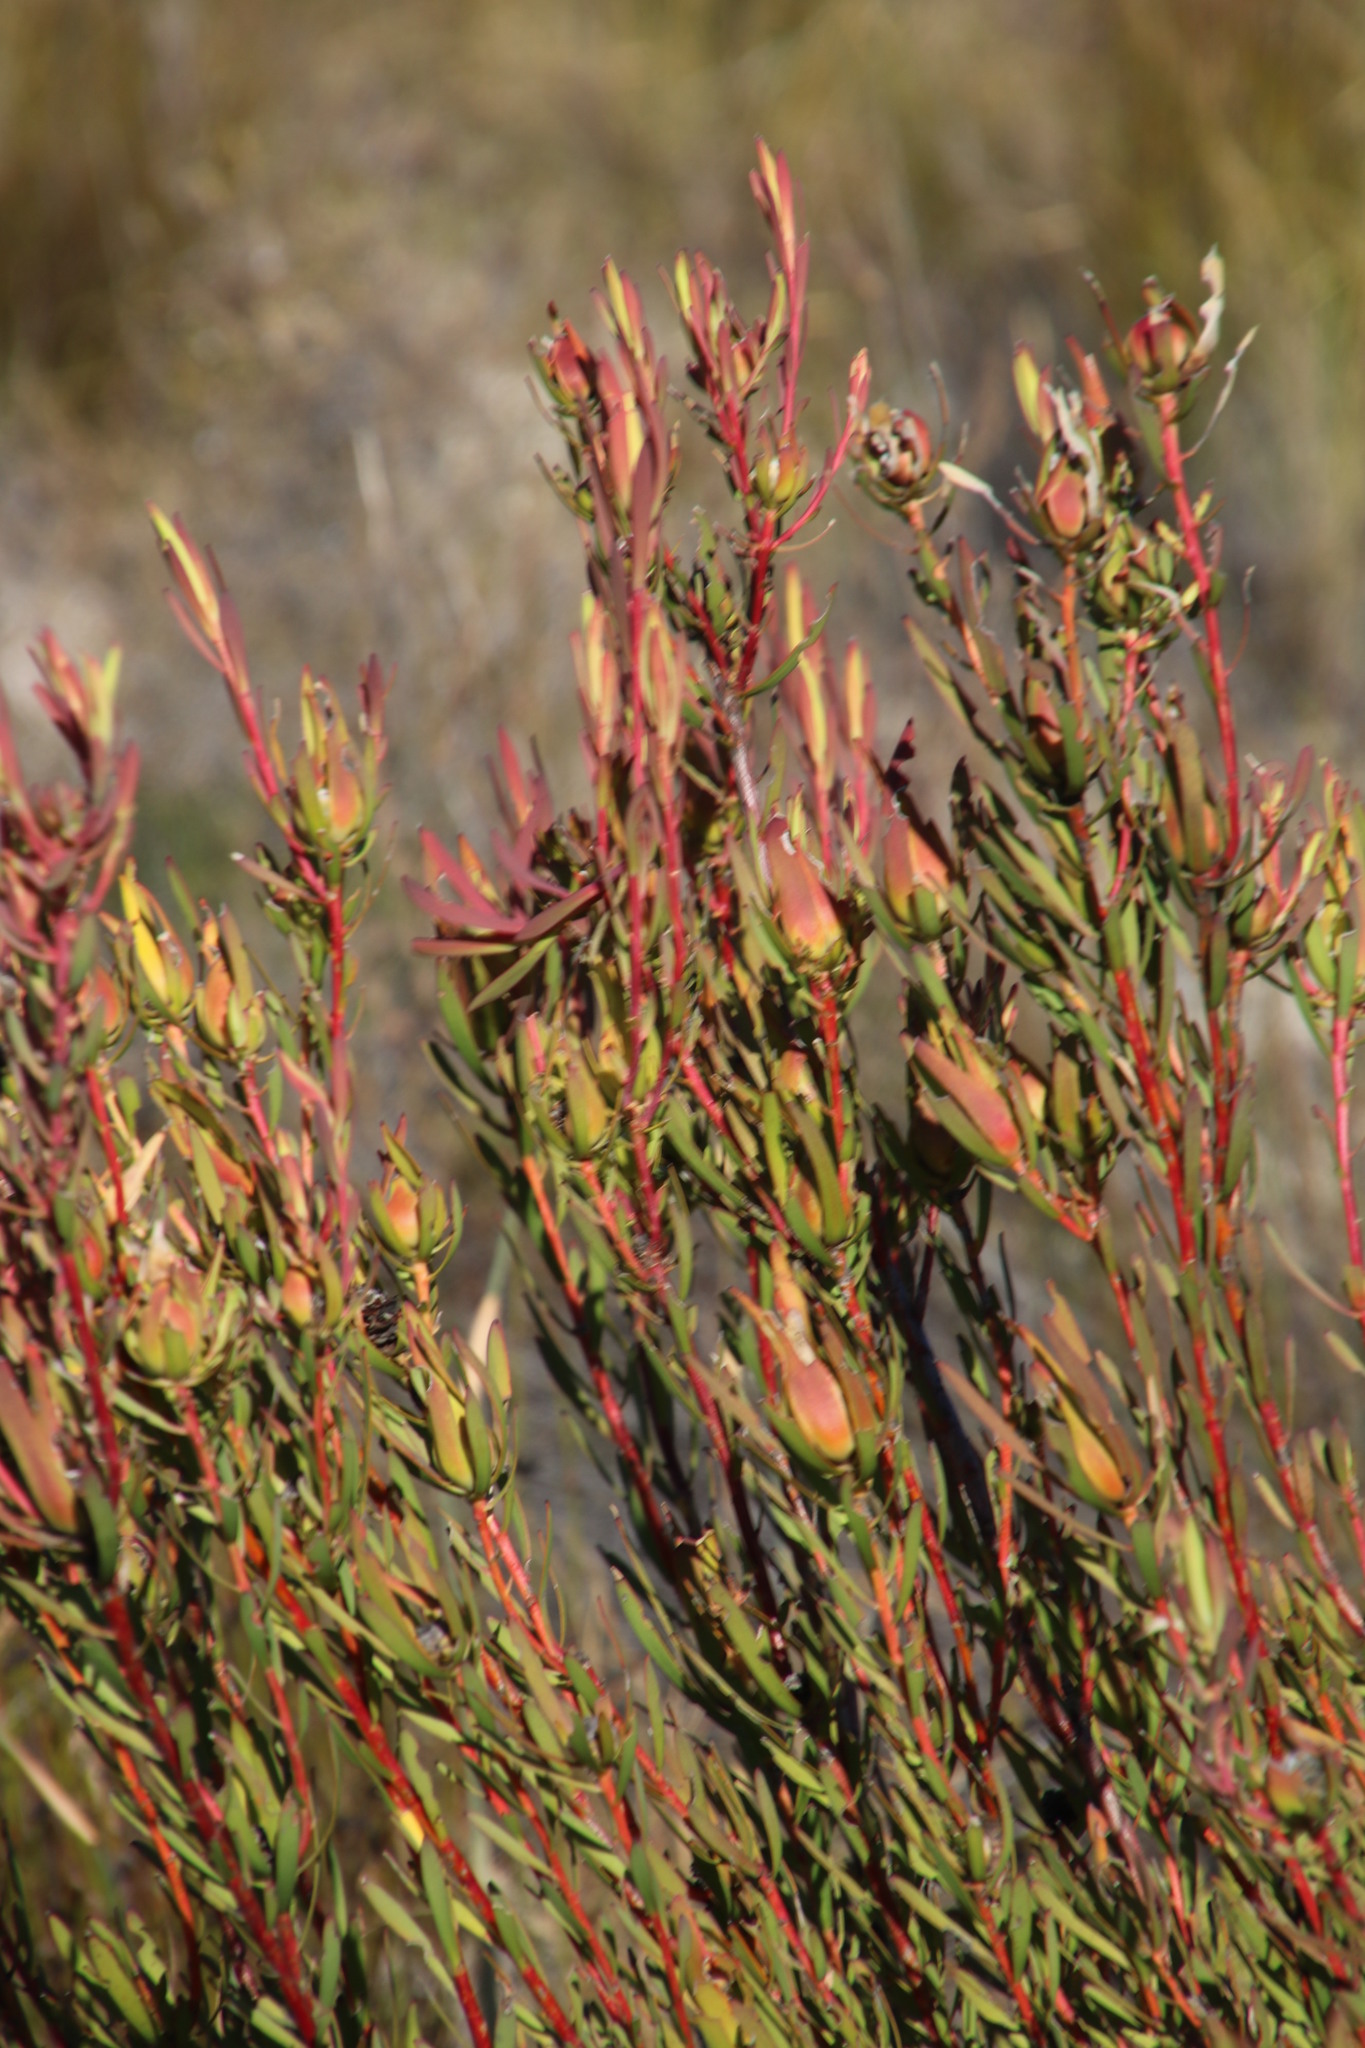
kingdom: Plantae
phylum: Tracheophyta
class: Magnoliopsida
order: Proteales
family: Proteaceae
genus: Leucadendron
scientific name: Leucadendron salignum
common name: Common sunshine conebush
